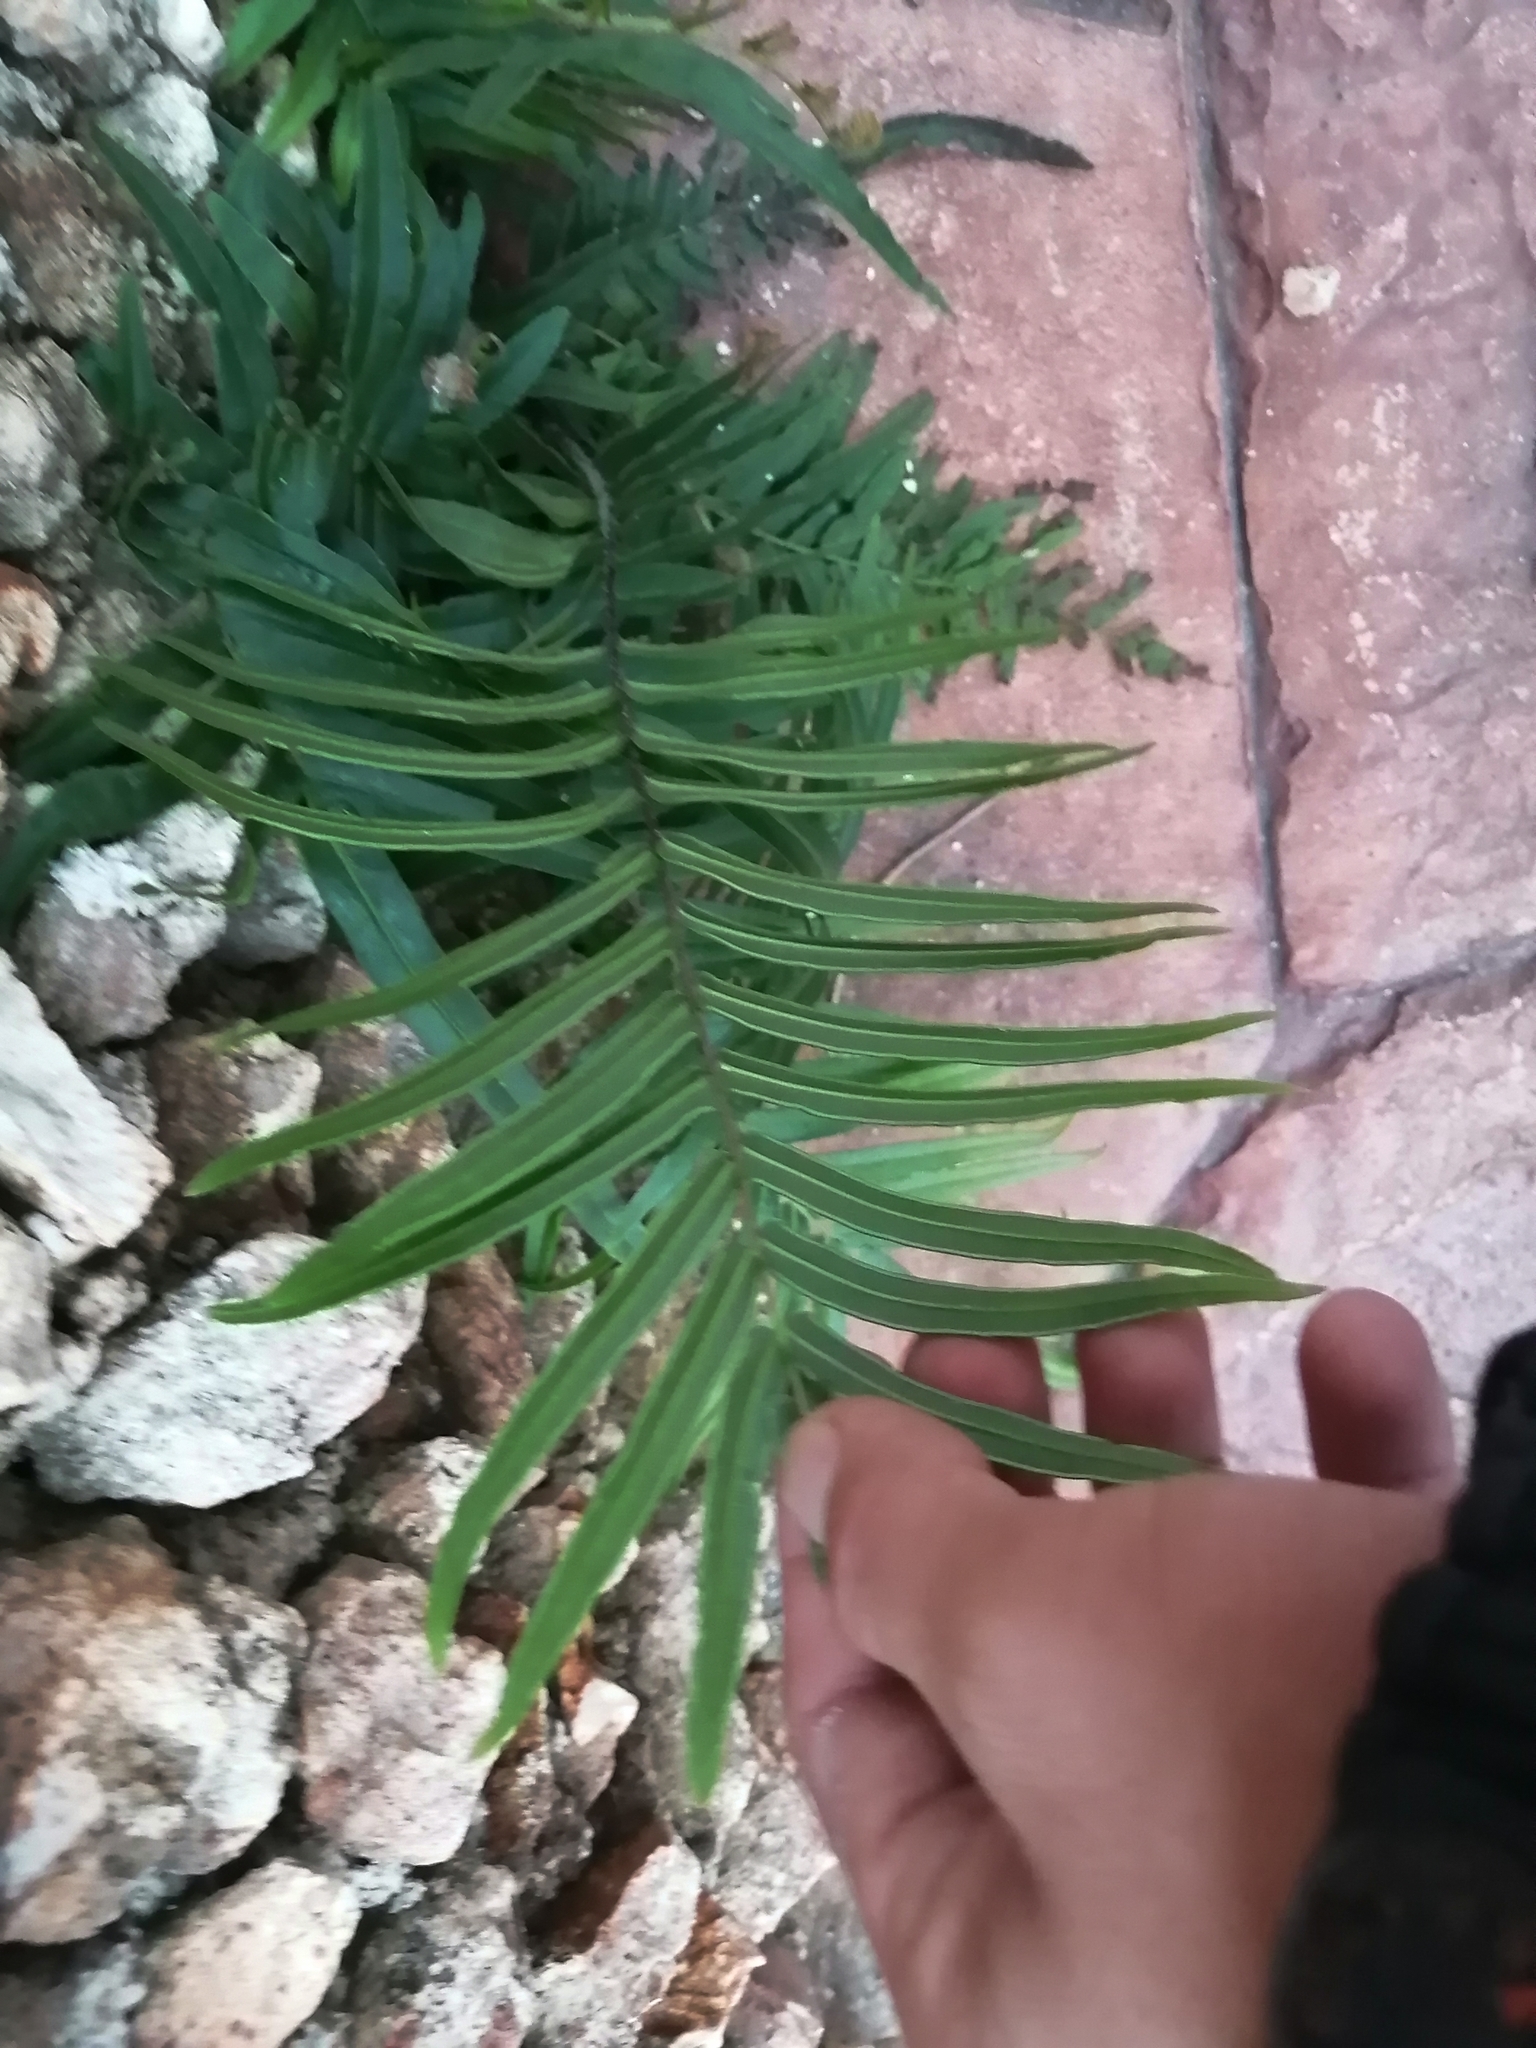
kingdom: Plantae
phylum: Tracheophyta
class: Polypodiopsida
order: Polypodiales
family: Pteridaceae
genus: Pteris
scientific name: Pteris vittata
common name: Ladder brake
